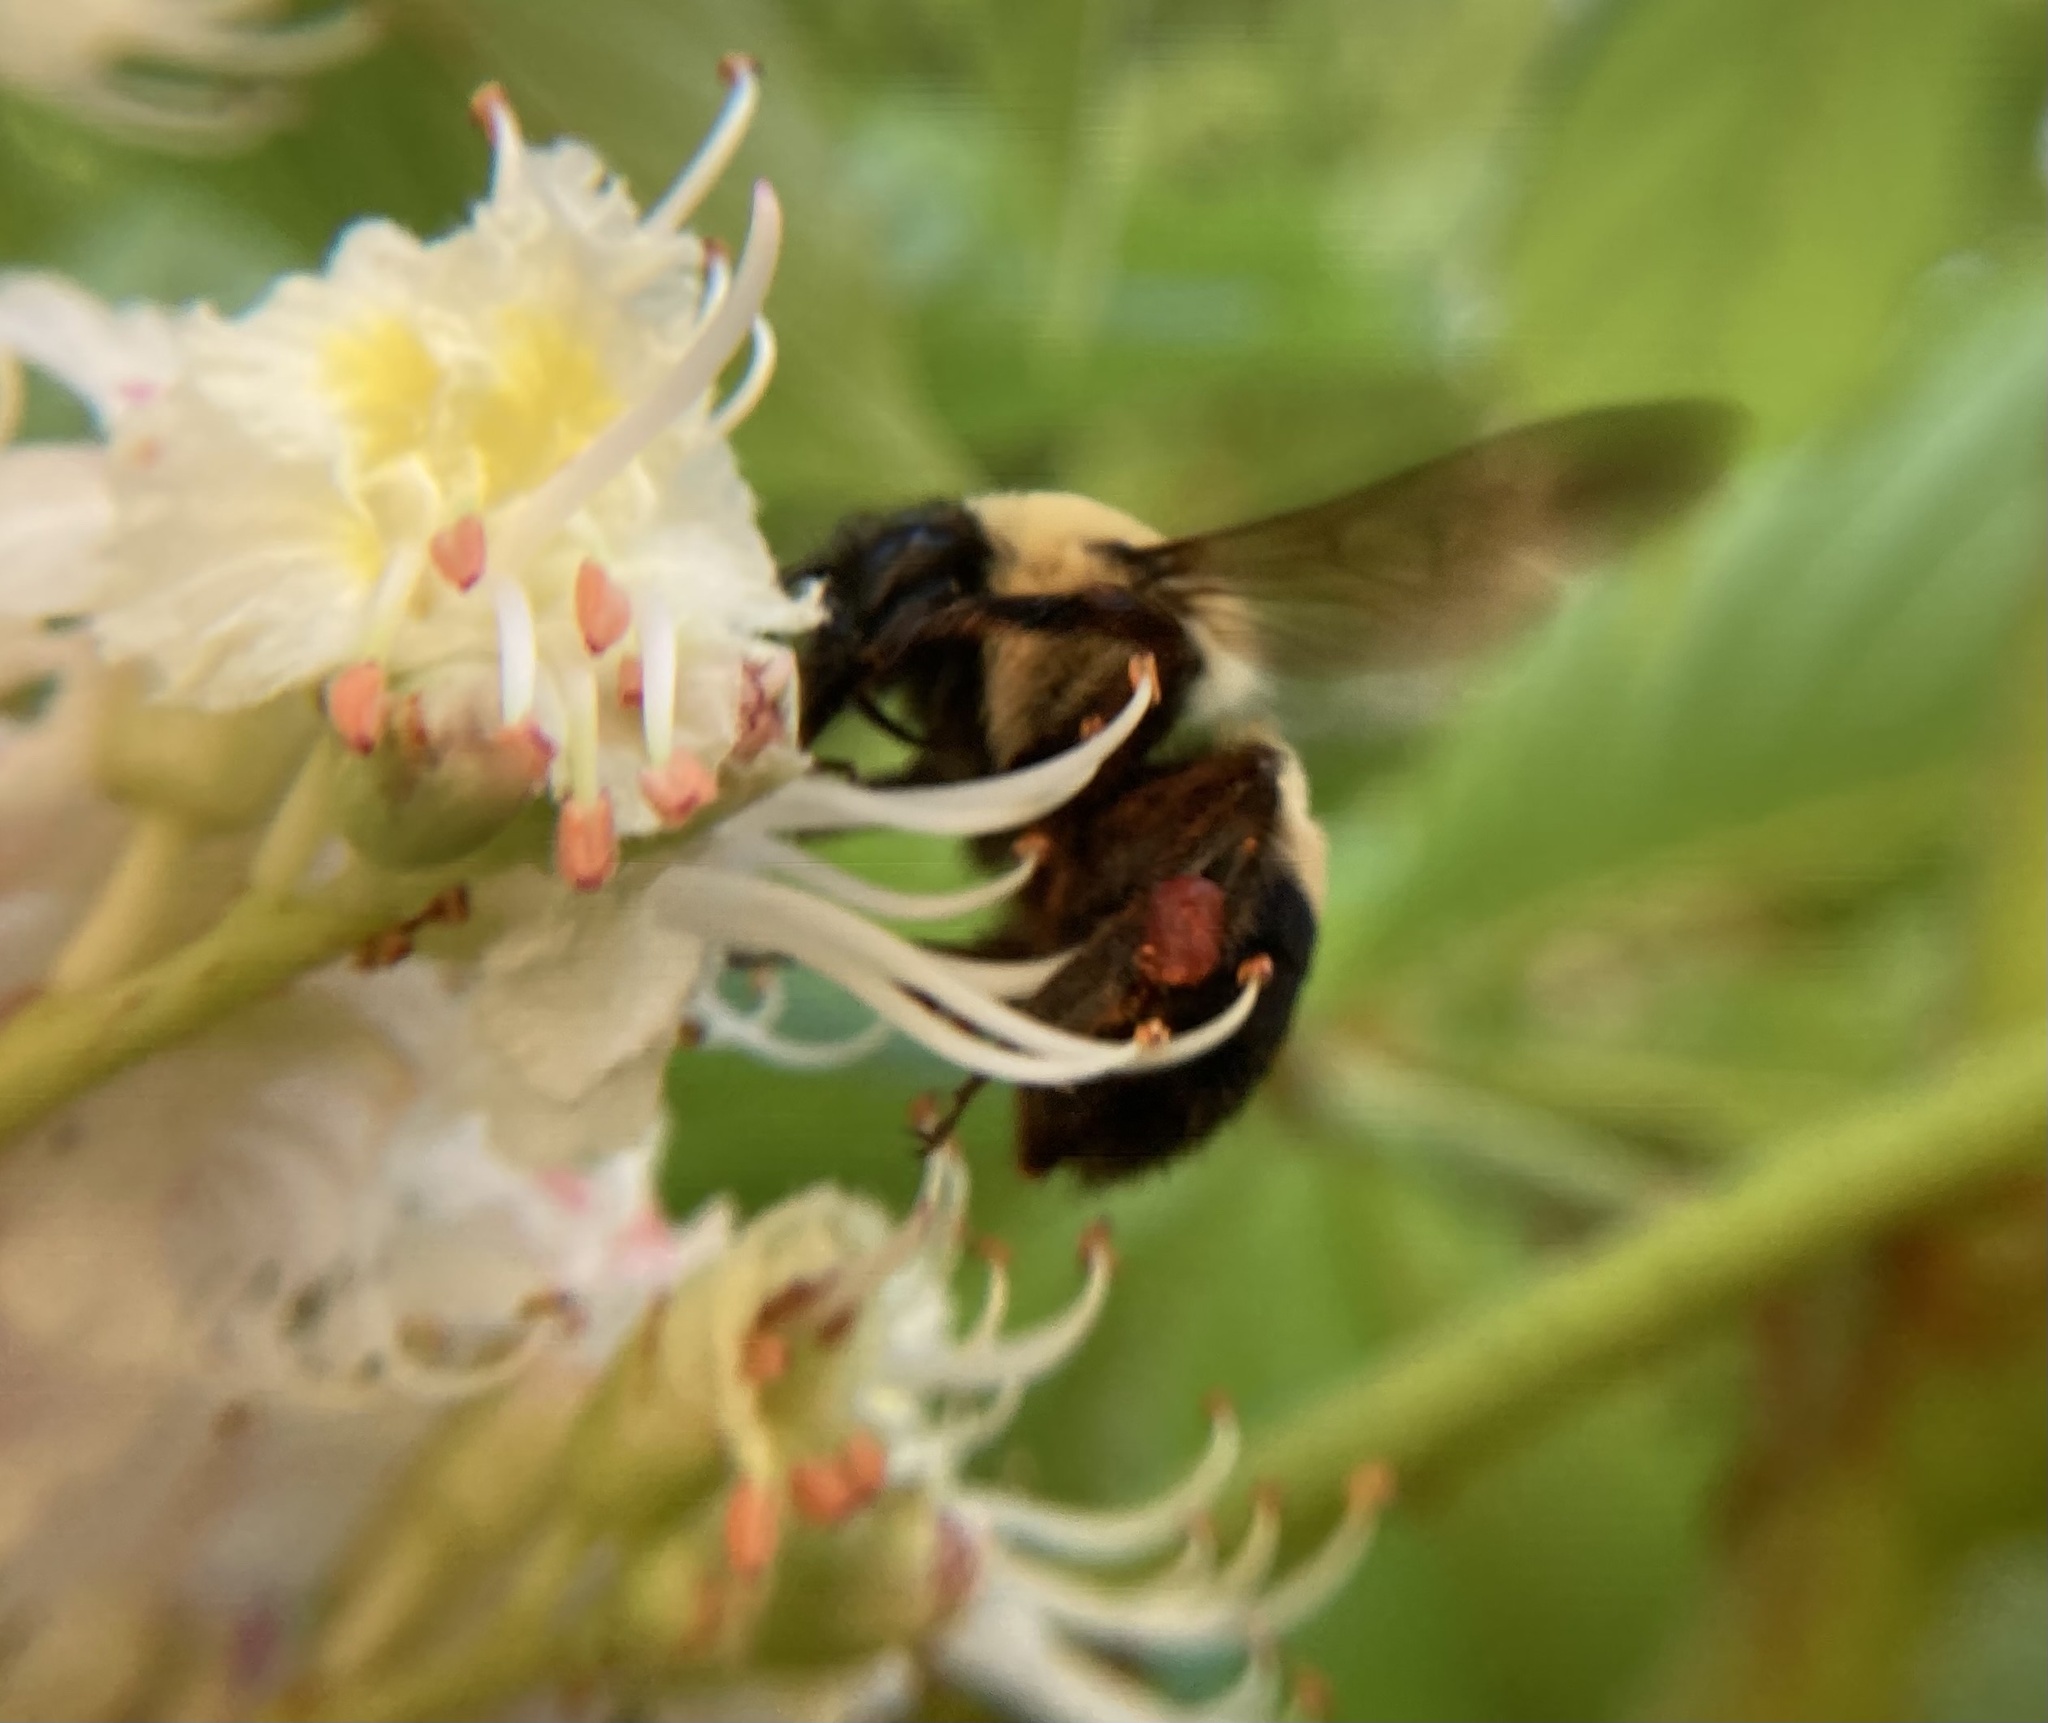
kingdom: Animalia
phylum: Arthropoda
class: Insecta
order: Hymenoptera
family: Apidae
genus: Bombus
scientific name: Bombus griseocollis
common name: Brown-belted bumble bee
